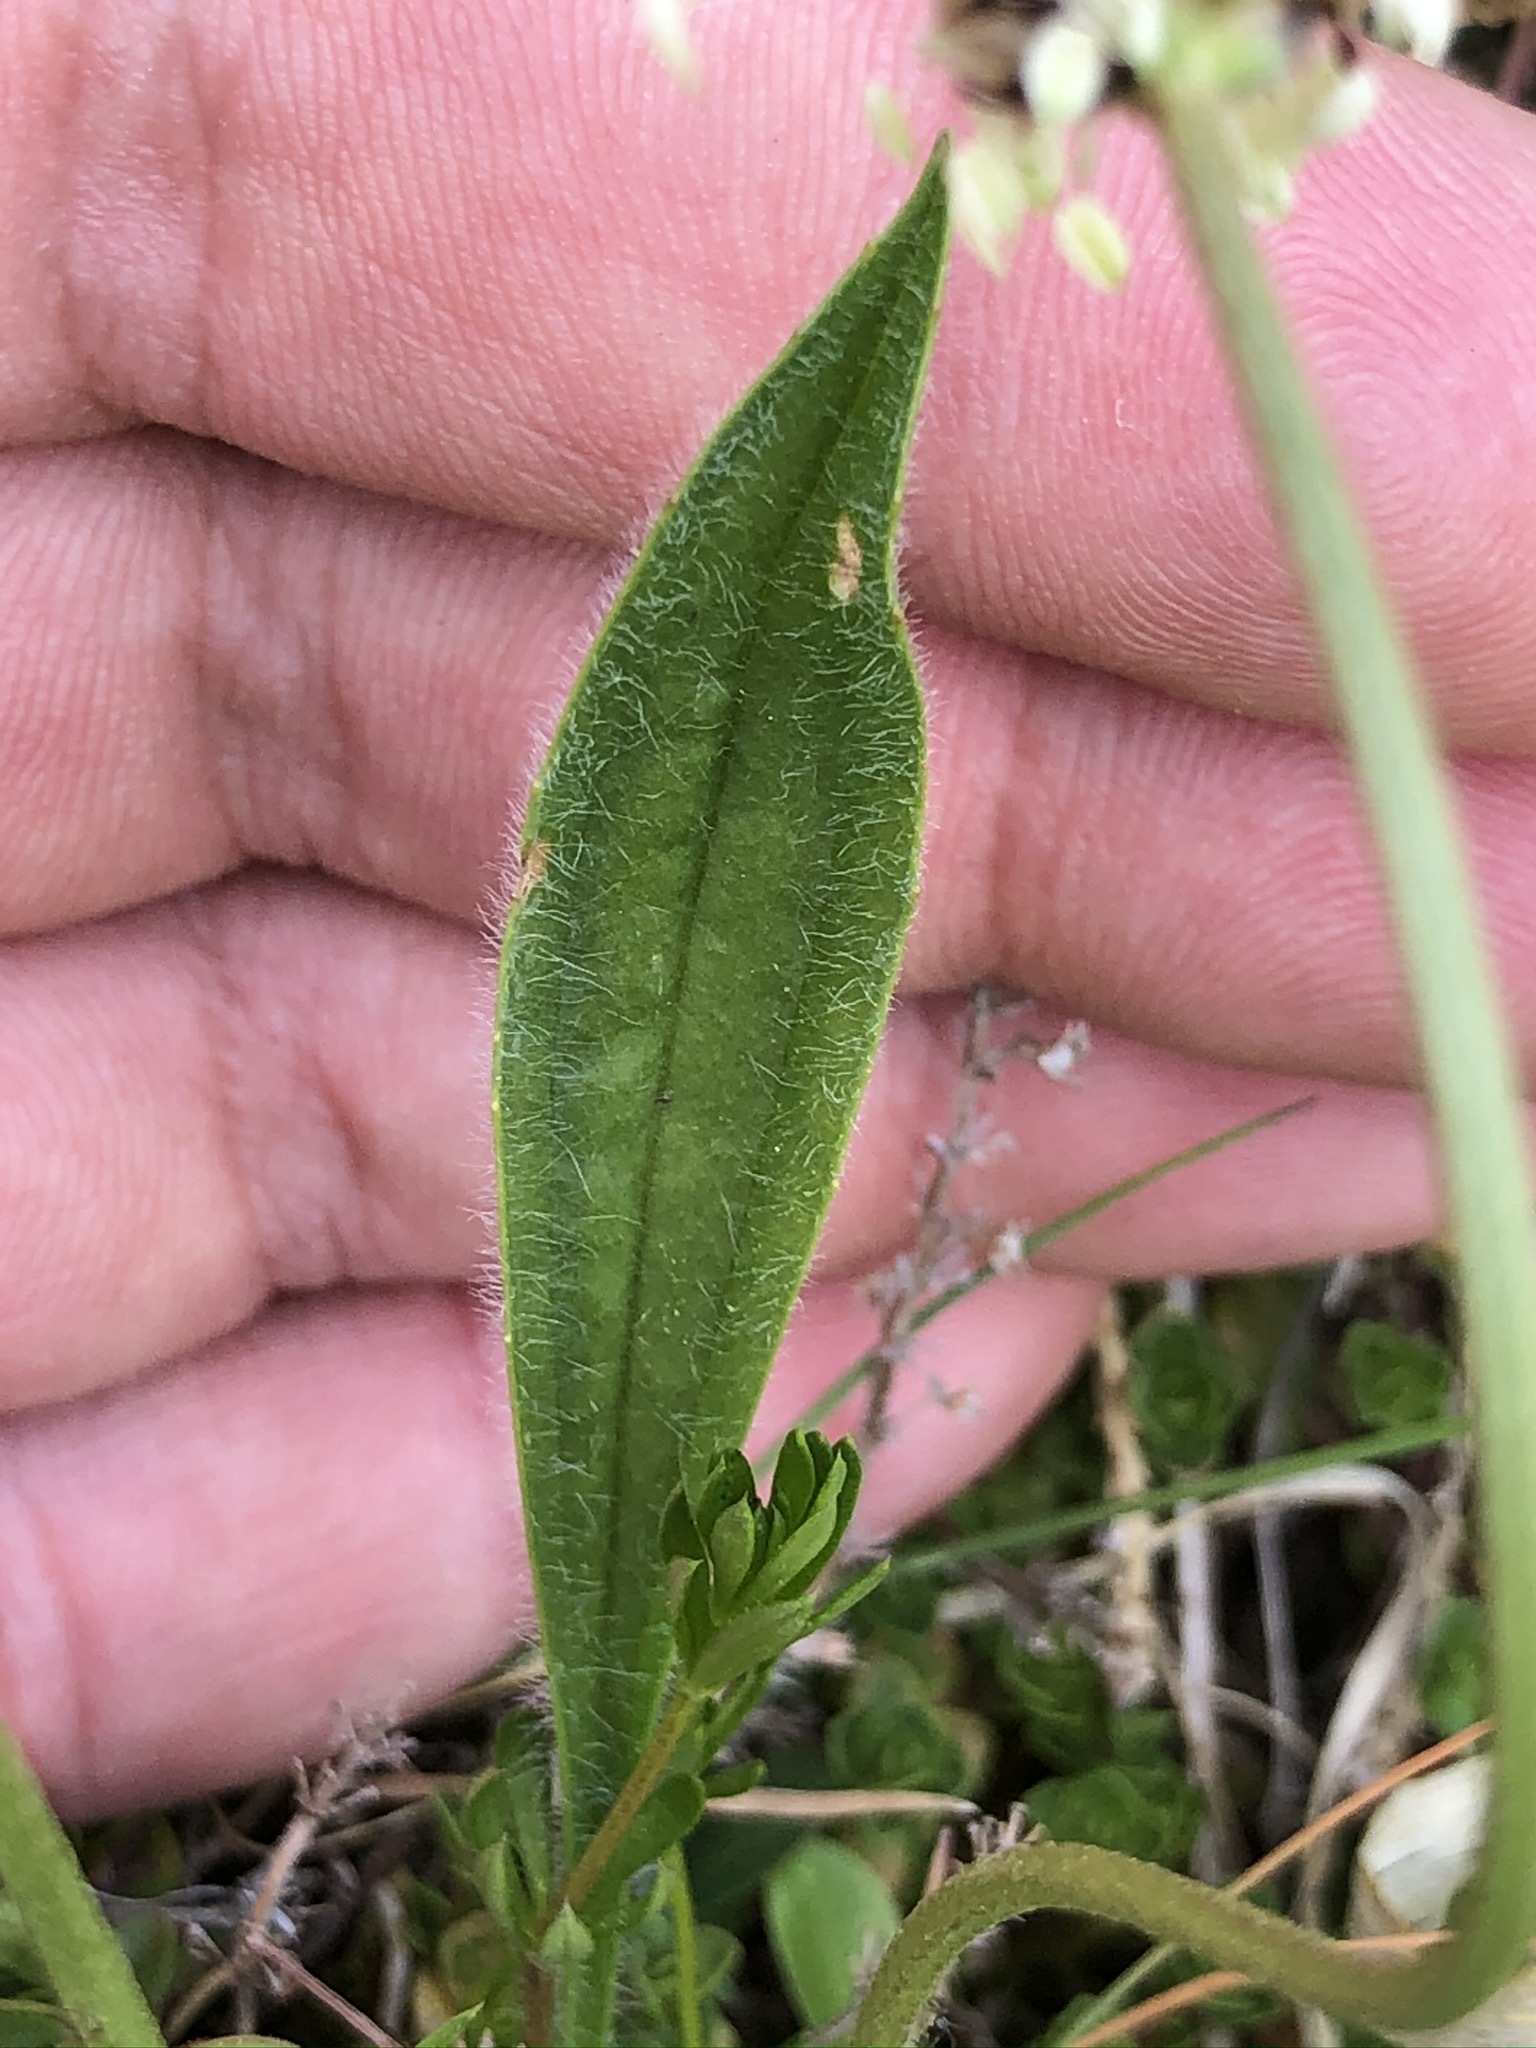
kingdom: Plantae
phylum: Tracheophyta
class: Magnoliopsida
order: Lamiales
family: Plantaginaceae
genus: Plantago
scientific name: Plantago lanceolata
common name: Ribwort plantain
